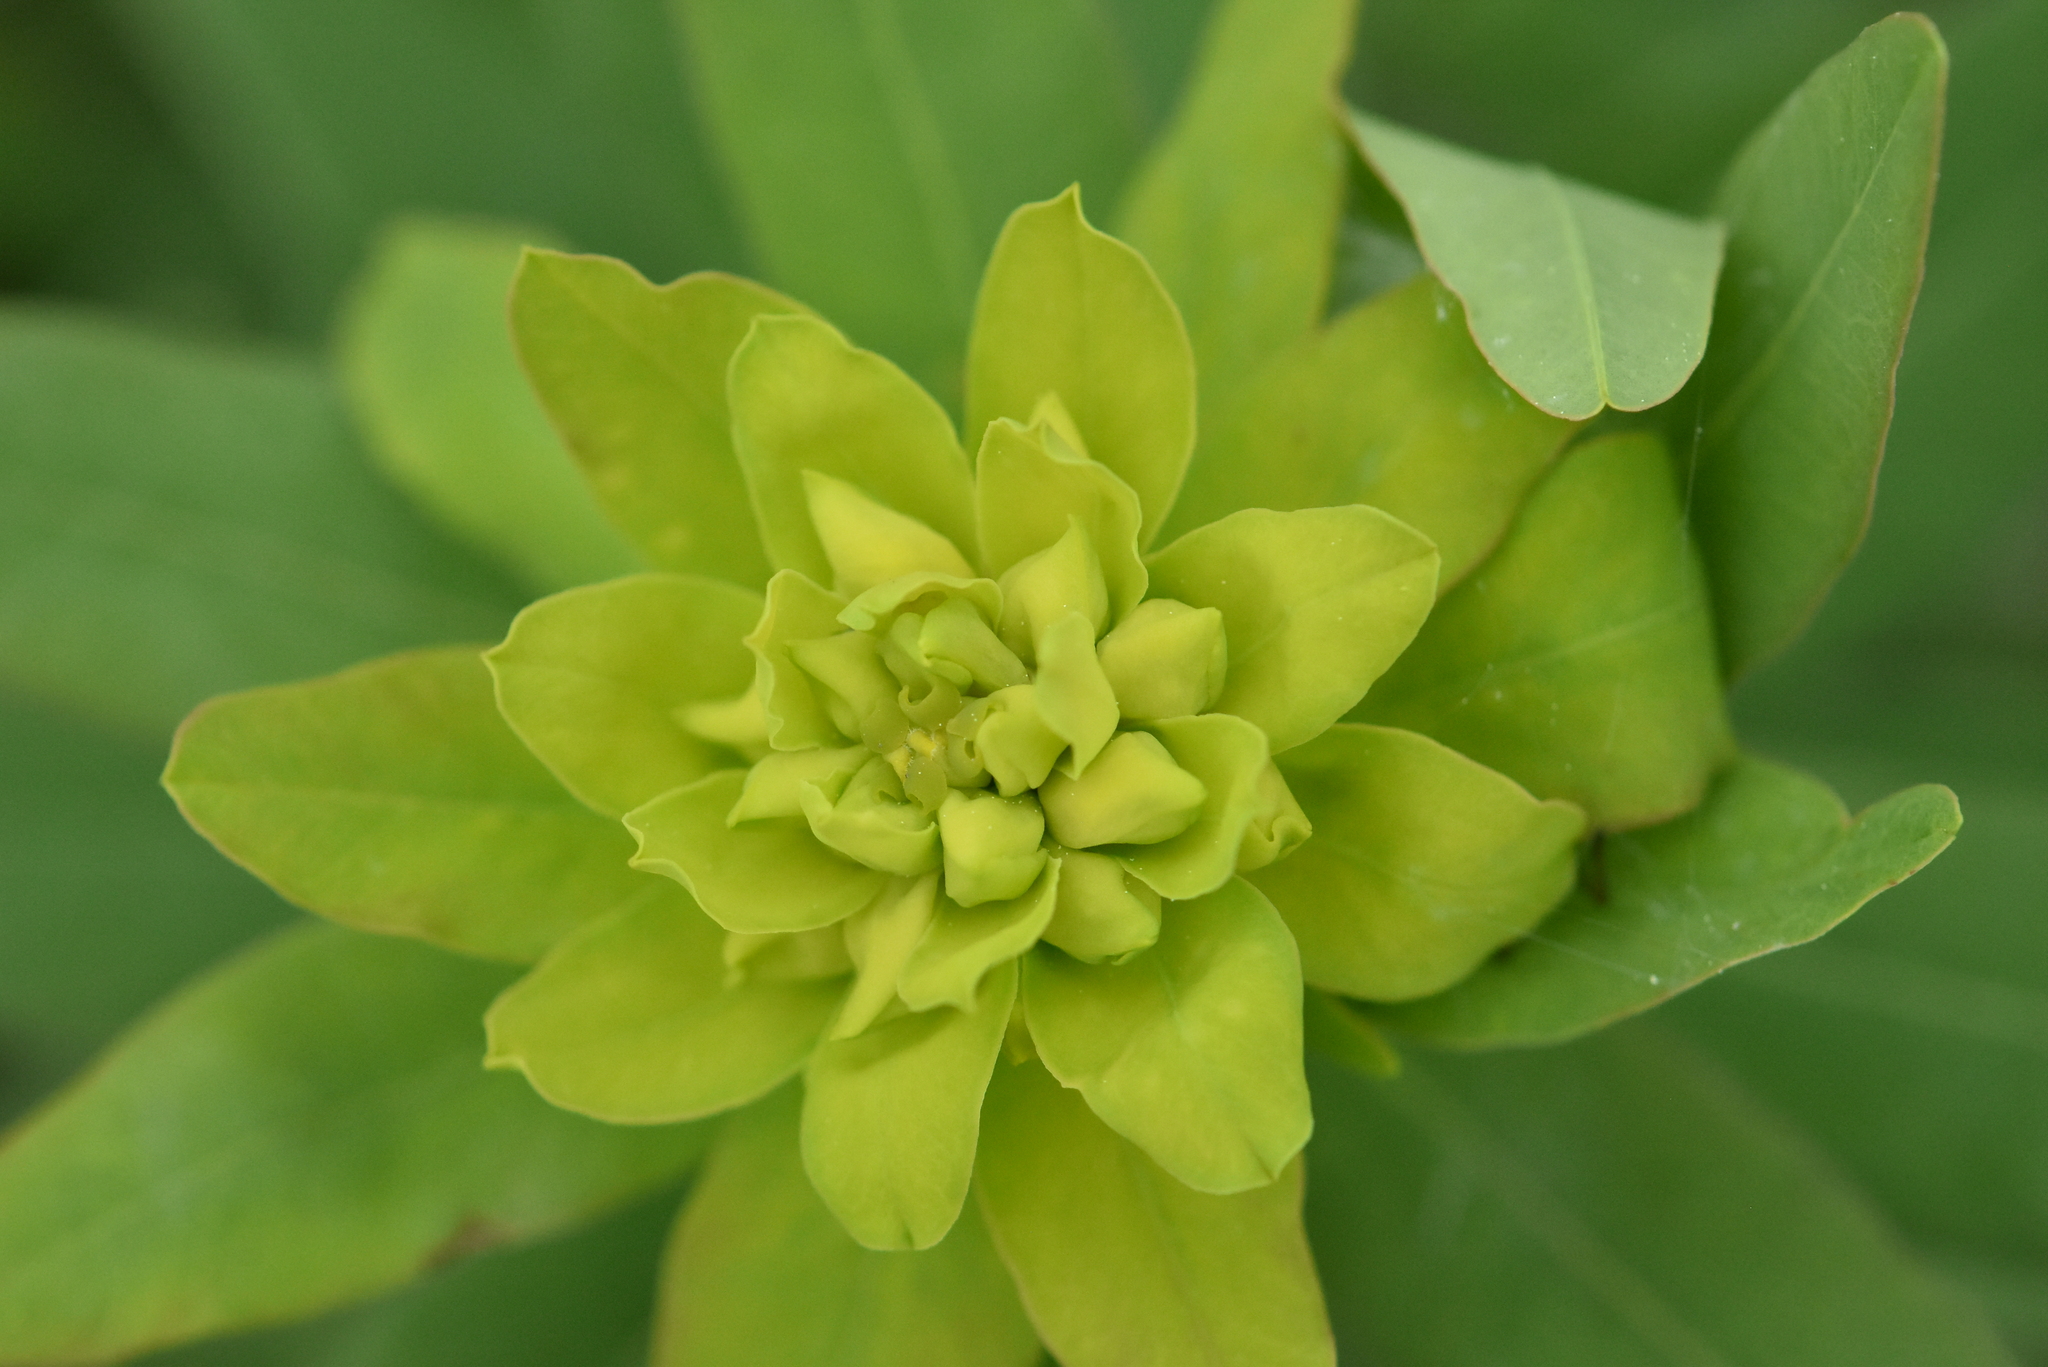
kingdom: Plantae
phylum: Tracheophyta
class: Magnoliopsida
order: Malpighiales
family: Euphorbiaceae
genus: Euphorbia
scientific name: Euphorbia iberica
